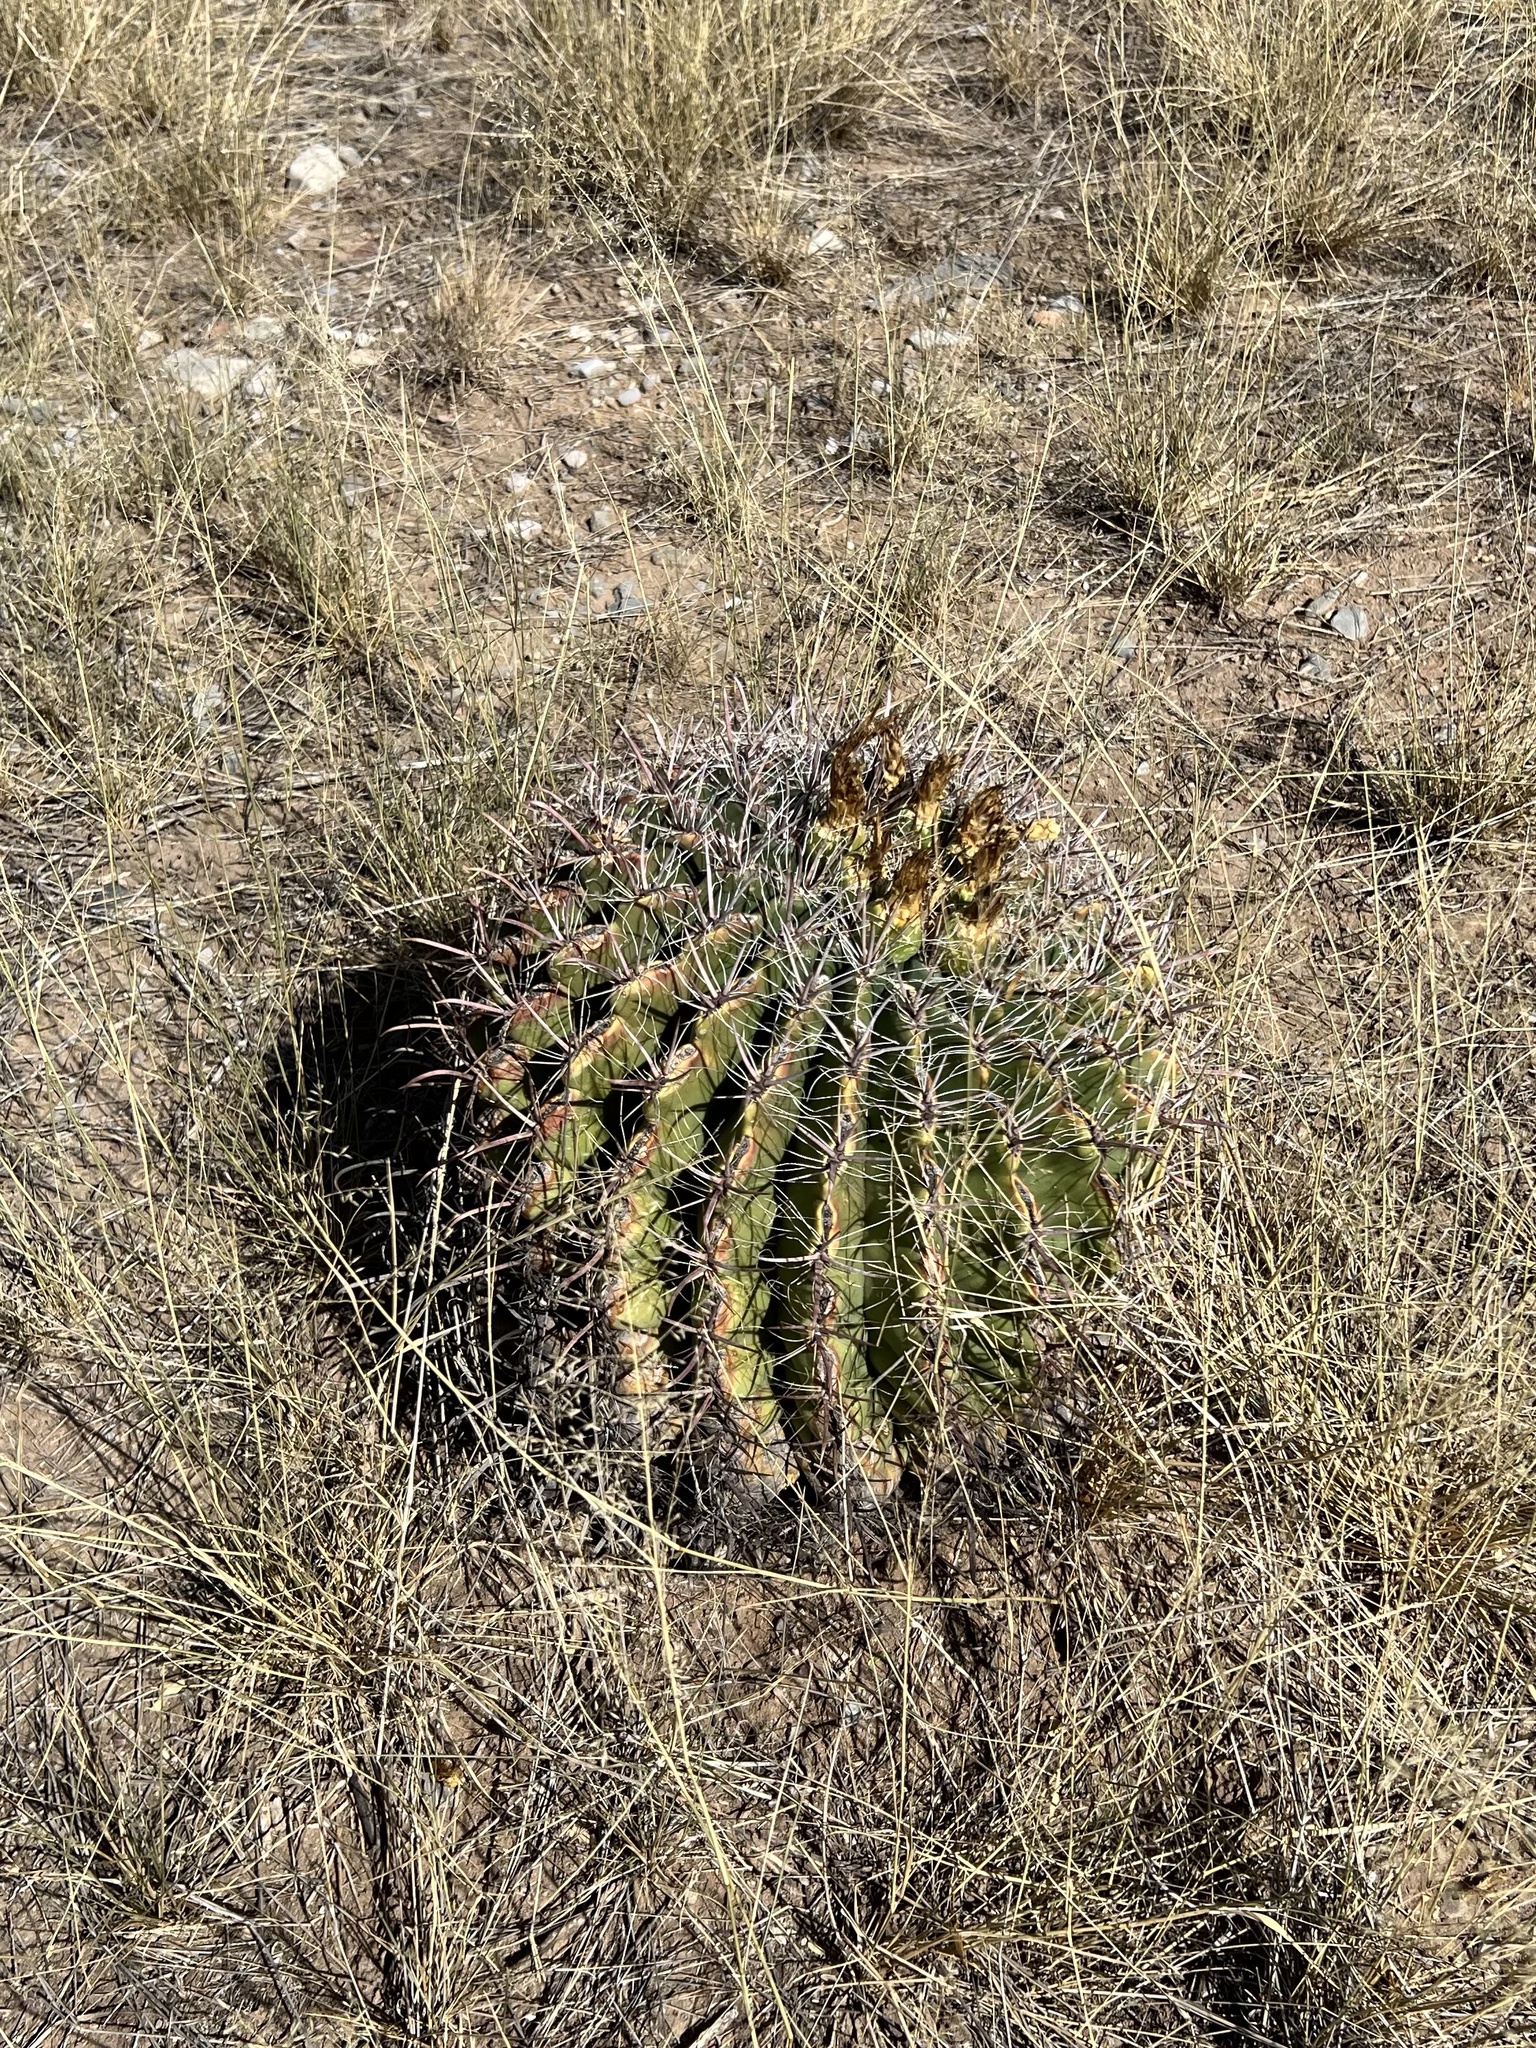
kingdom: Plantae
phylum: Tracheophyta
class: Magnoliopsida
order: Caryophyllales
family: Cactaceae
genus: Ferocactus
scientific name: Ferocactus wislizeni
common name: Candy barrel cactus
